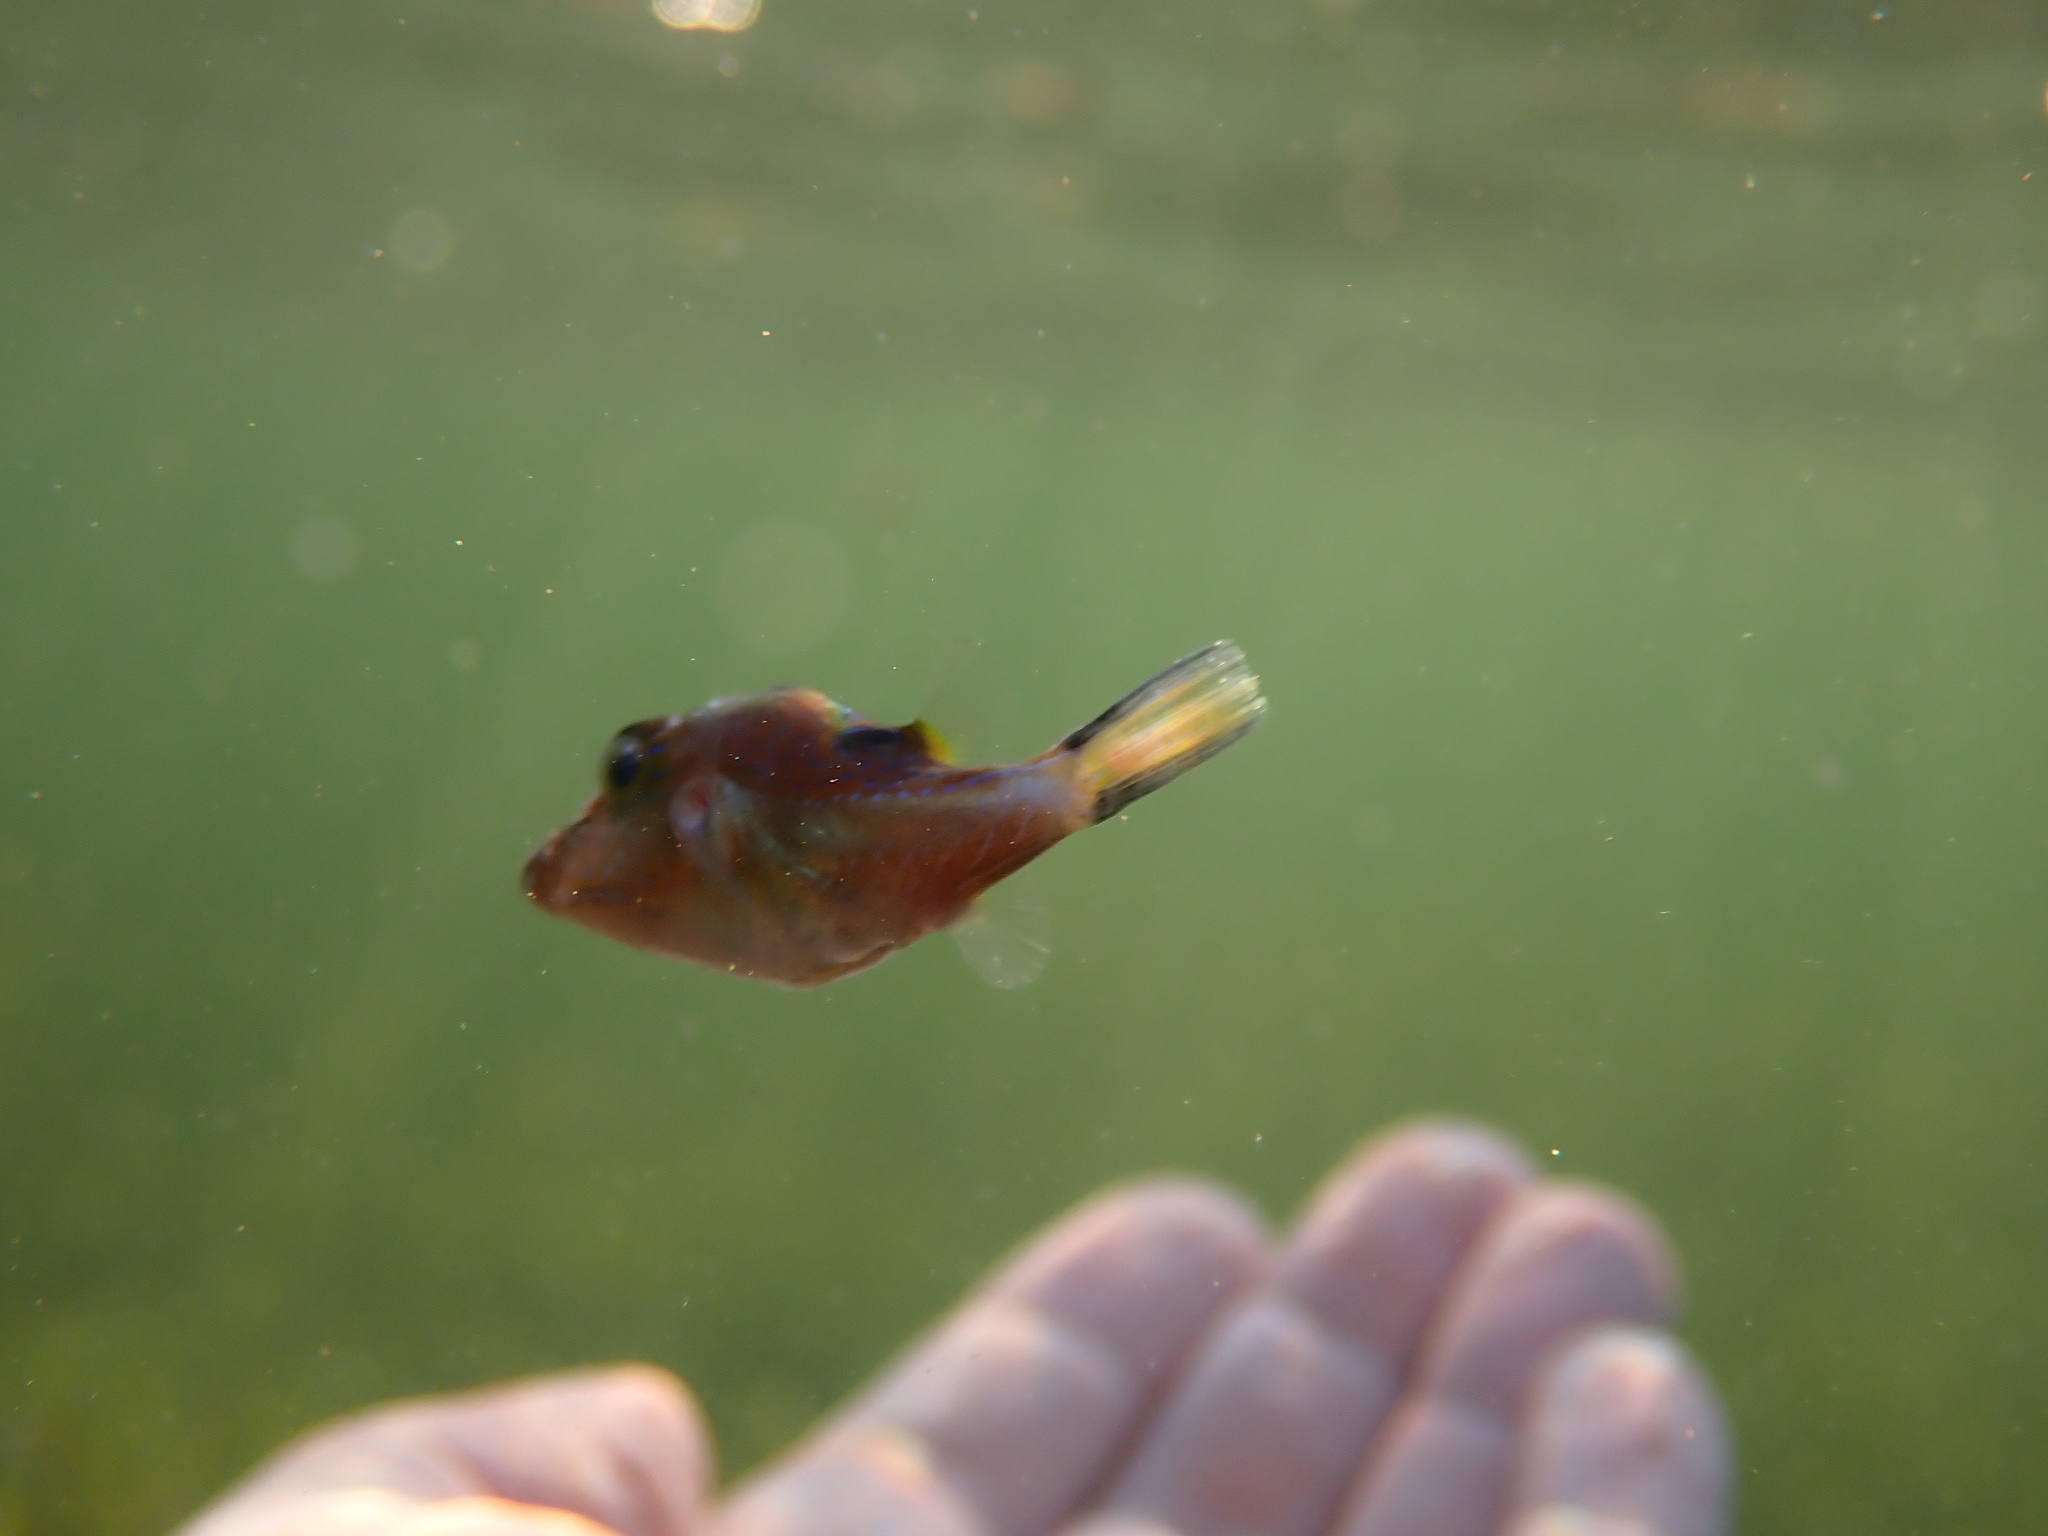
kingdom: Animalia
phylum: Chordata
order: Tetraodontiformes
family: Tetraodontidae
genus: Canthigaster
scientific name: Canthigaster rostrata
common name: Caribbean sharpnose-puffer
